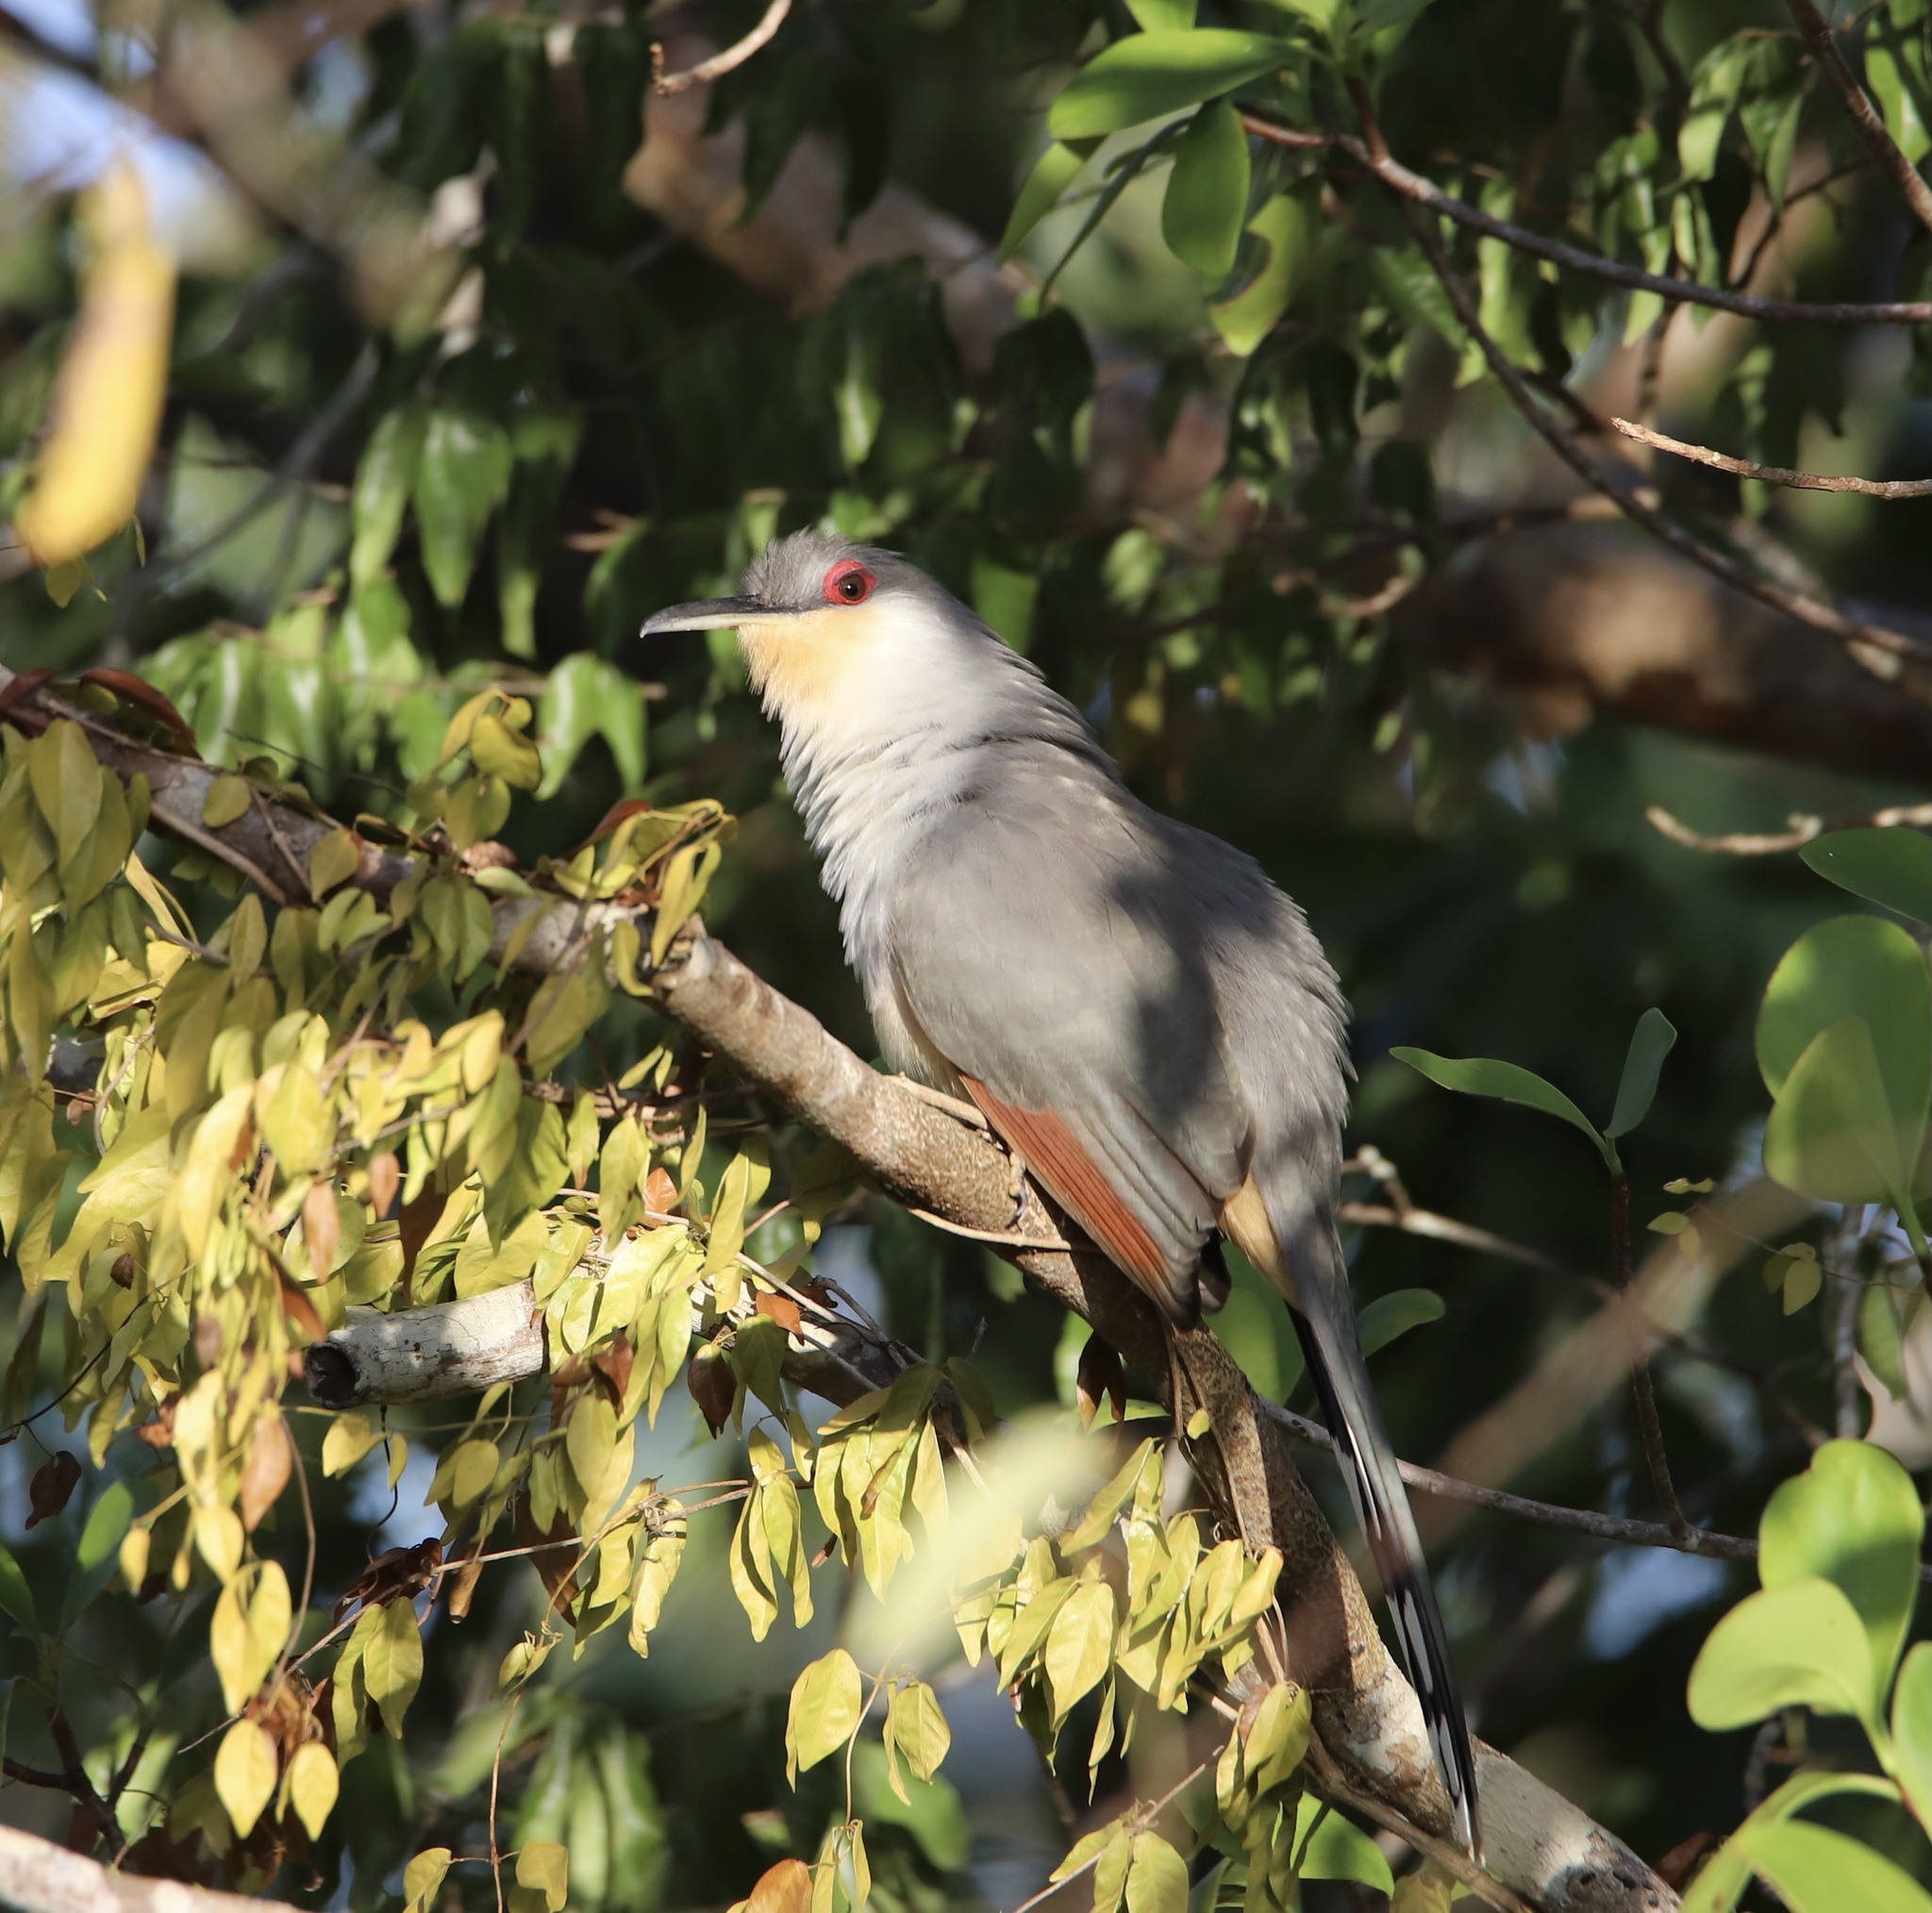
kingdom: Animalia
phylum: Chordata
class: Aves
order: Cuculiformes
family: Cuculidae
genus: Saurothera
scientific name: Saurothera longirostris
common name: Hispaniolan lizard-cuckoo
